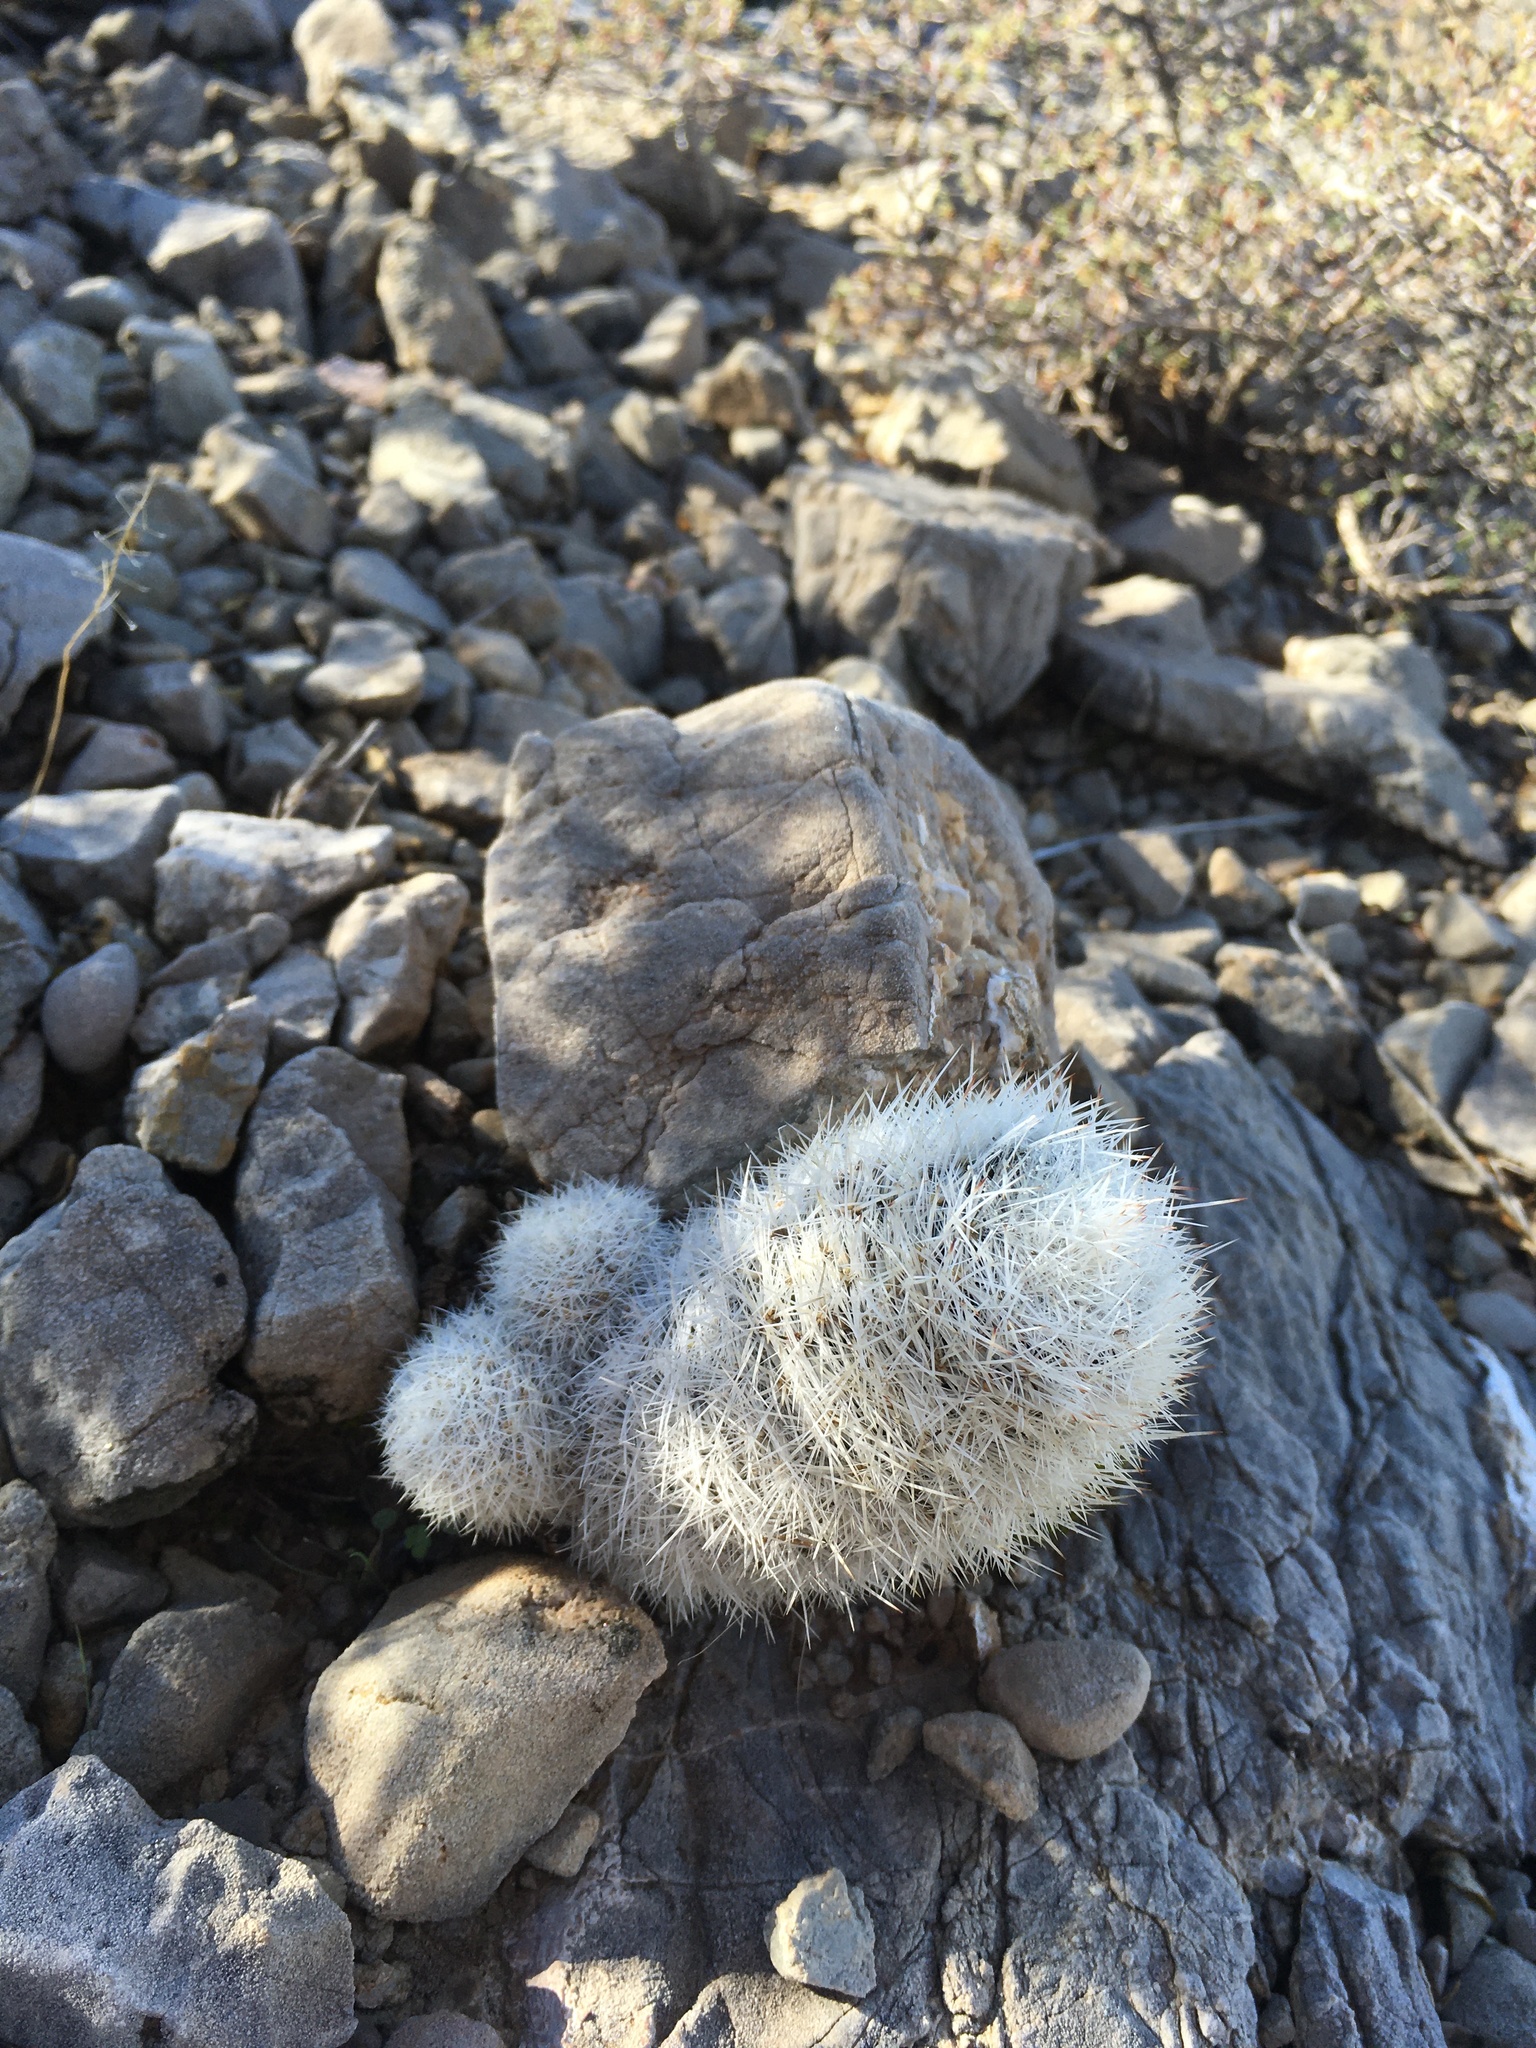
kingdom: Plantae
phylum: Tracheophyta
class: Magnoliopsida
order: Caryophyllales
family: Cactaceae
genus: Pelecyphora
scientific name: Pelecyphora sneedii
